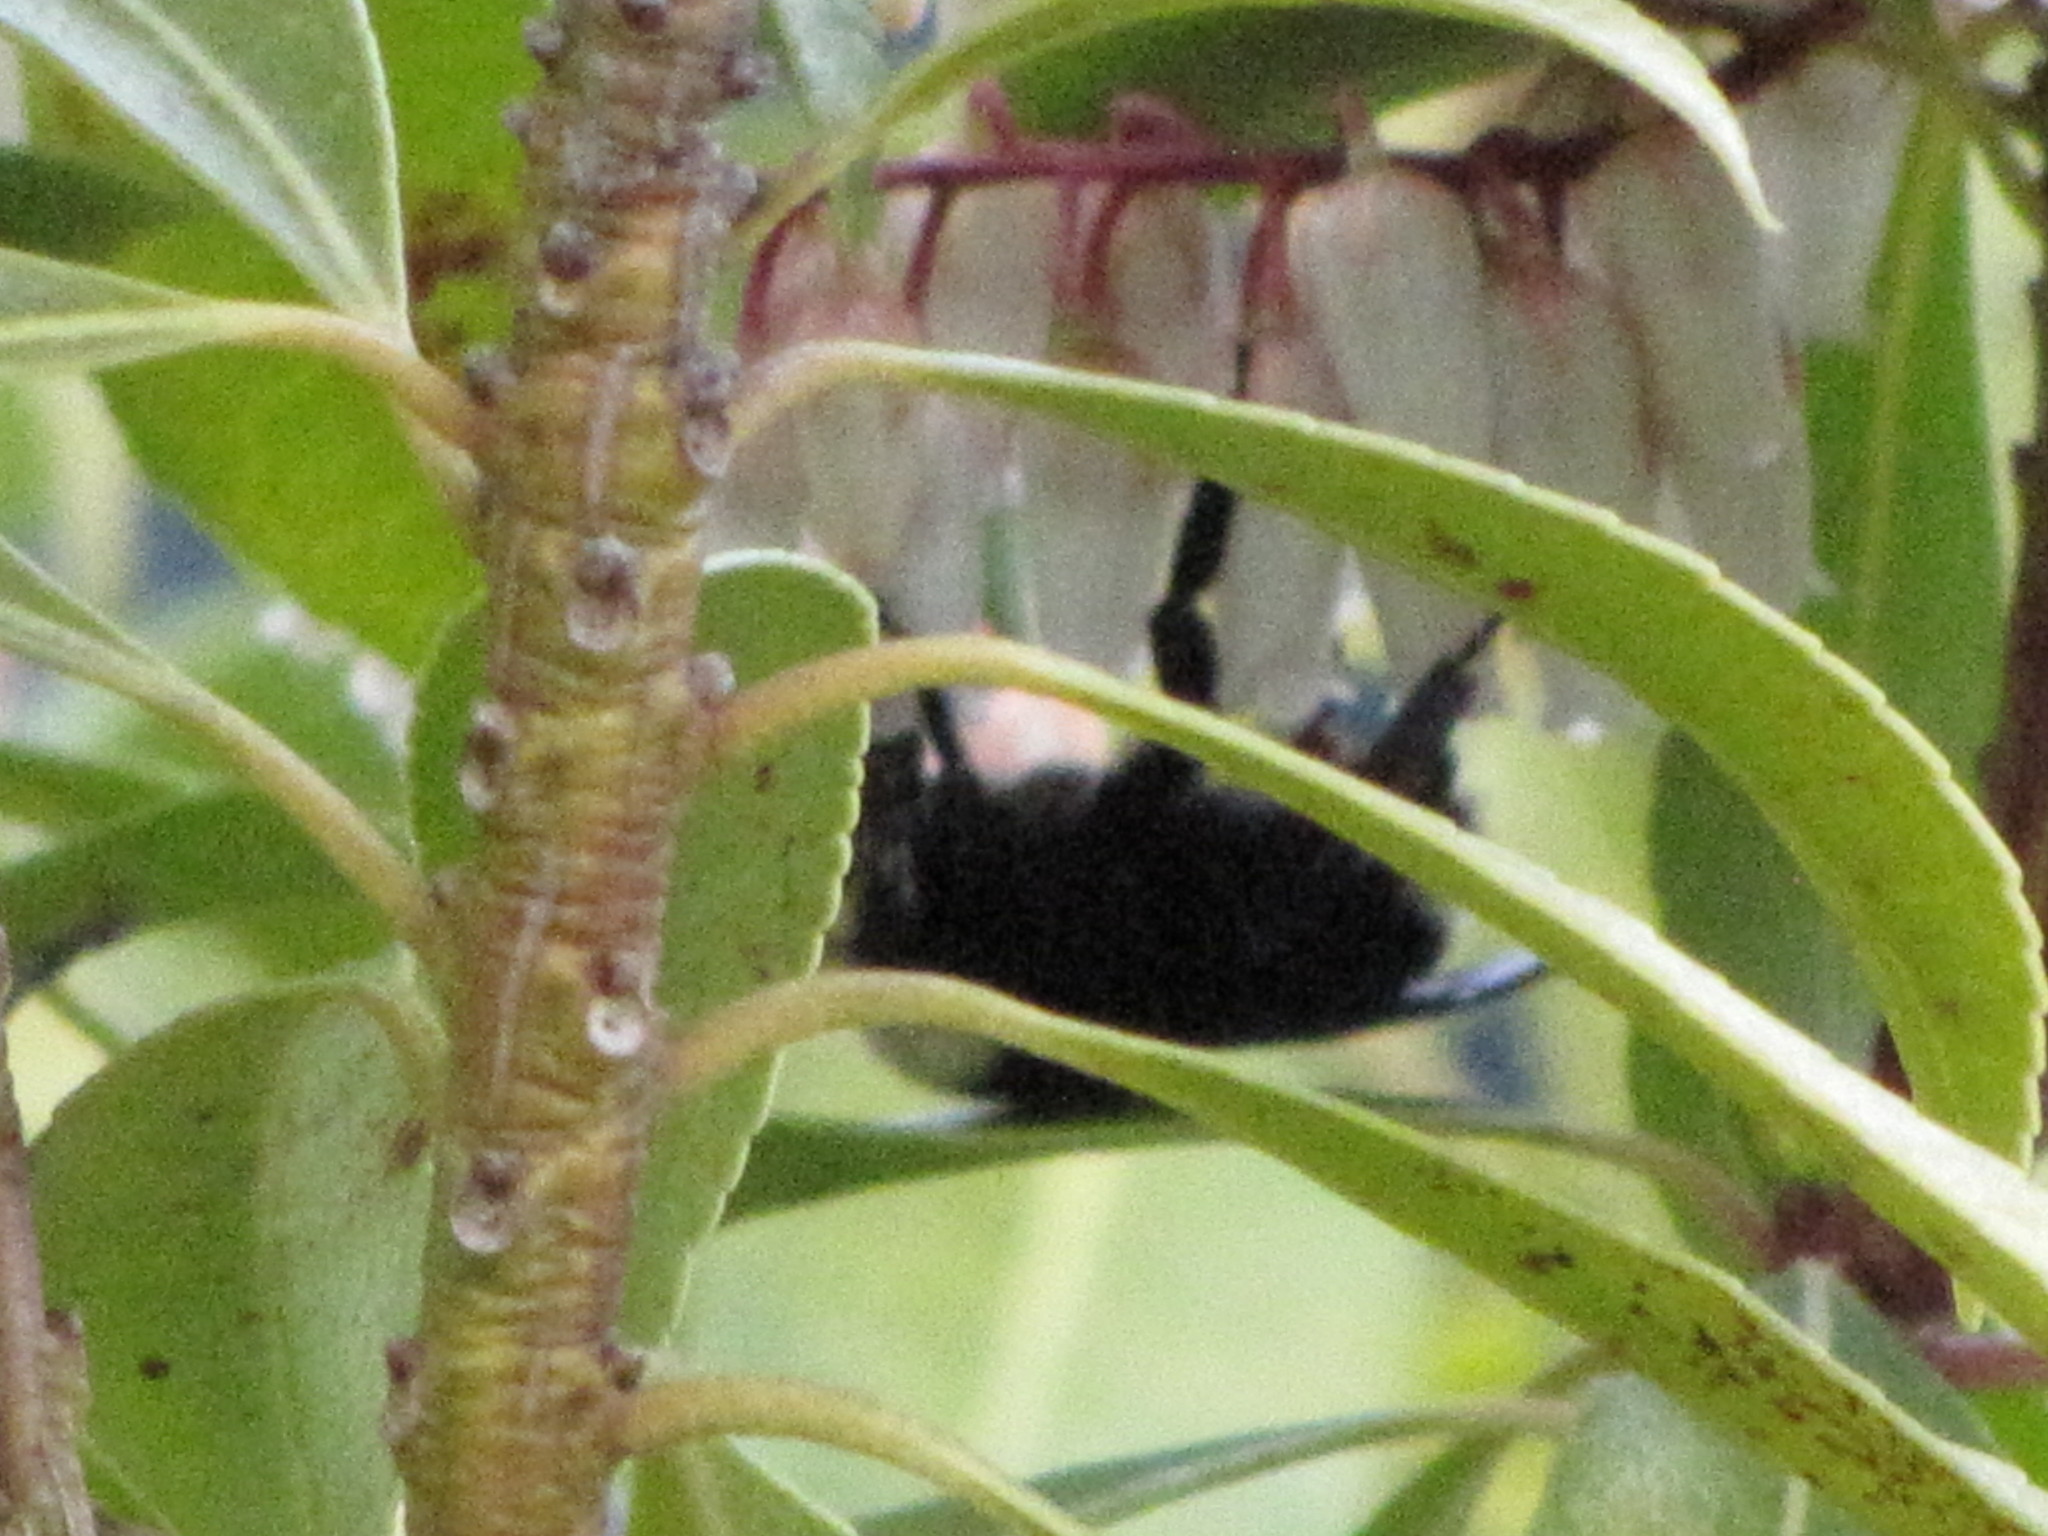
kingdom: Animalia
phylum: Arthropoda
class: Insecta
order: Hymenoptera
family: Apidae
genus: Bombus
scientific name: Bombus vosnesenskii
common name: Vosnesensky bumble bee
